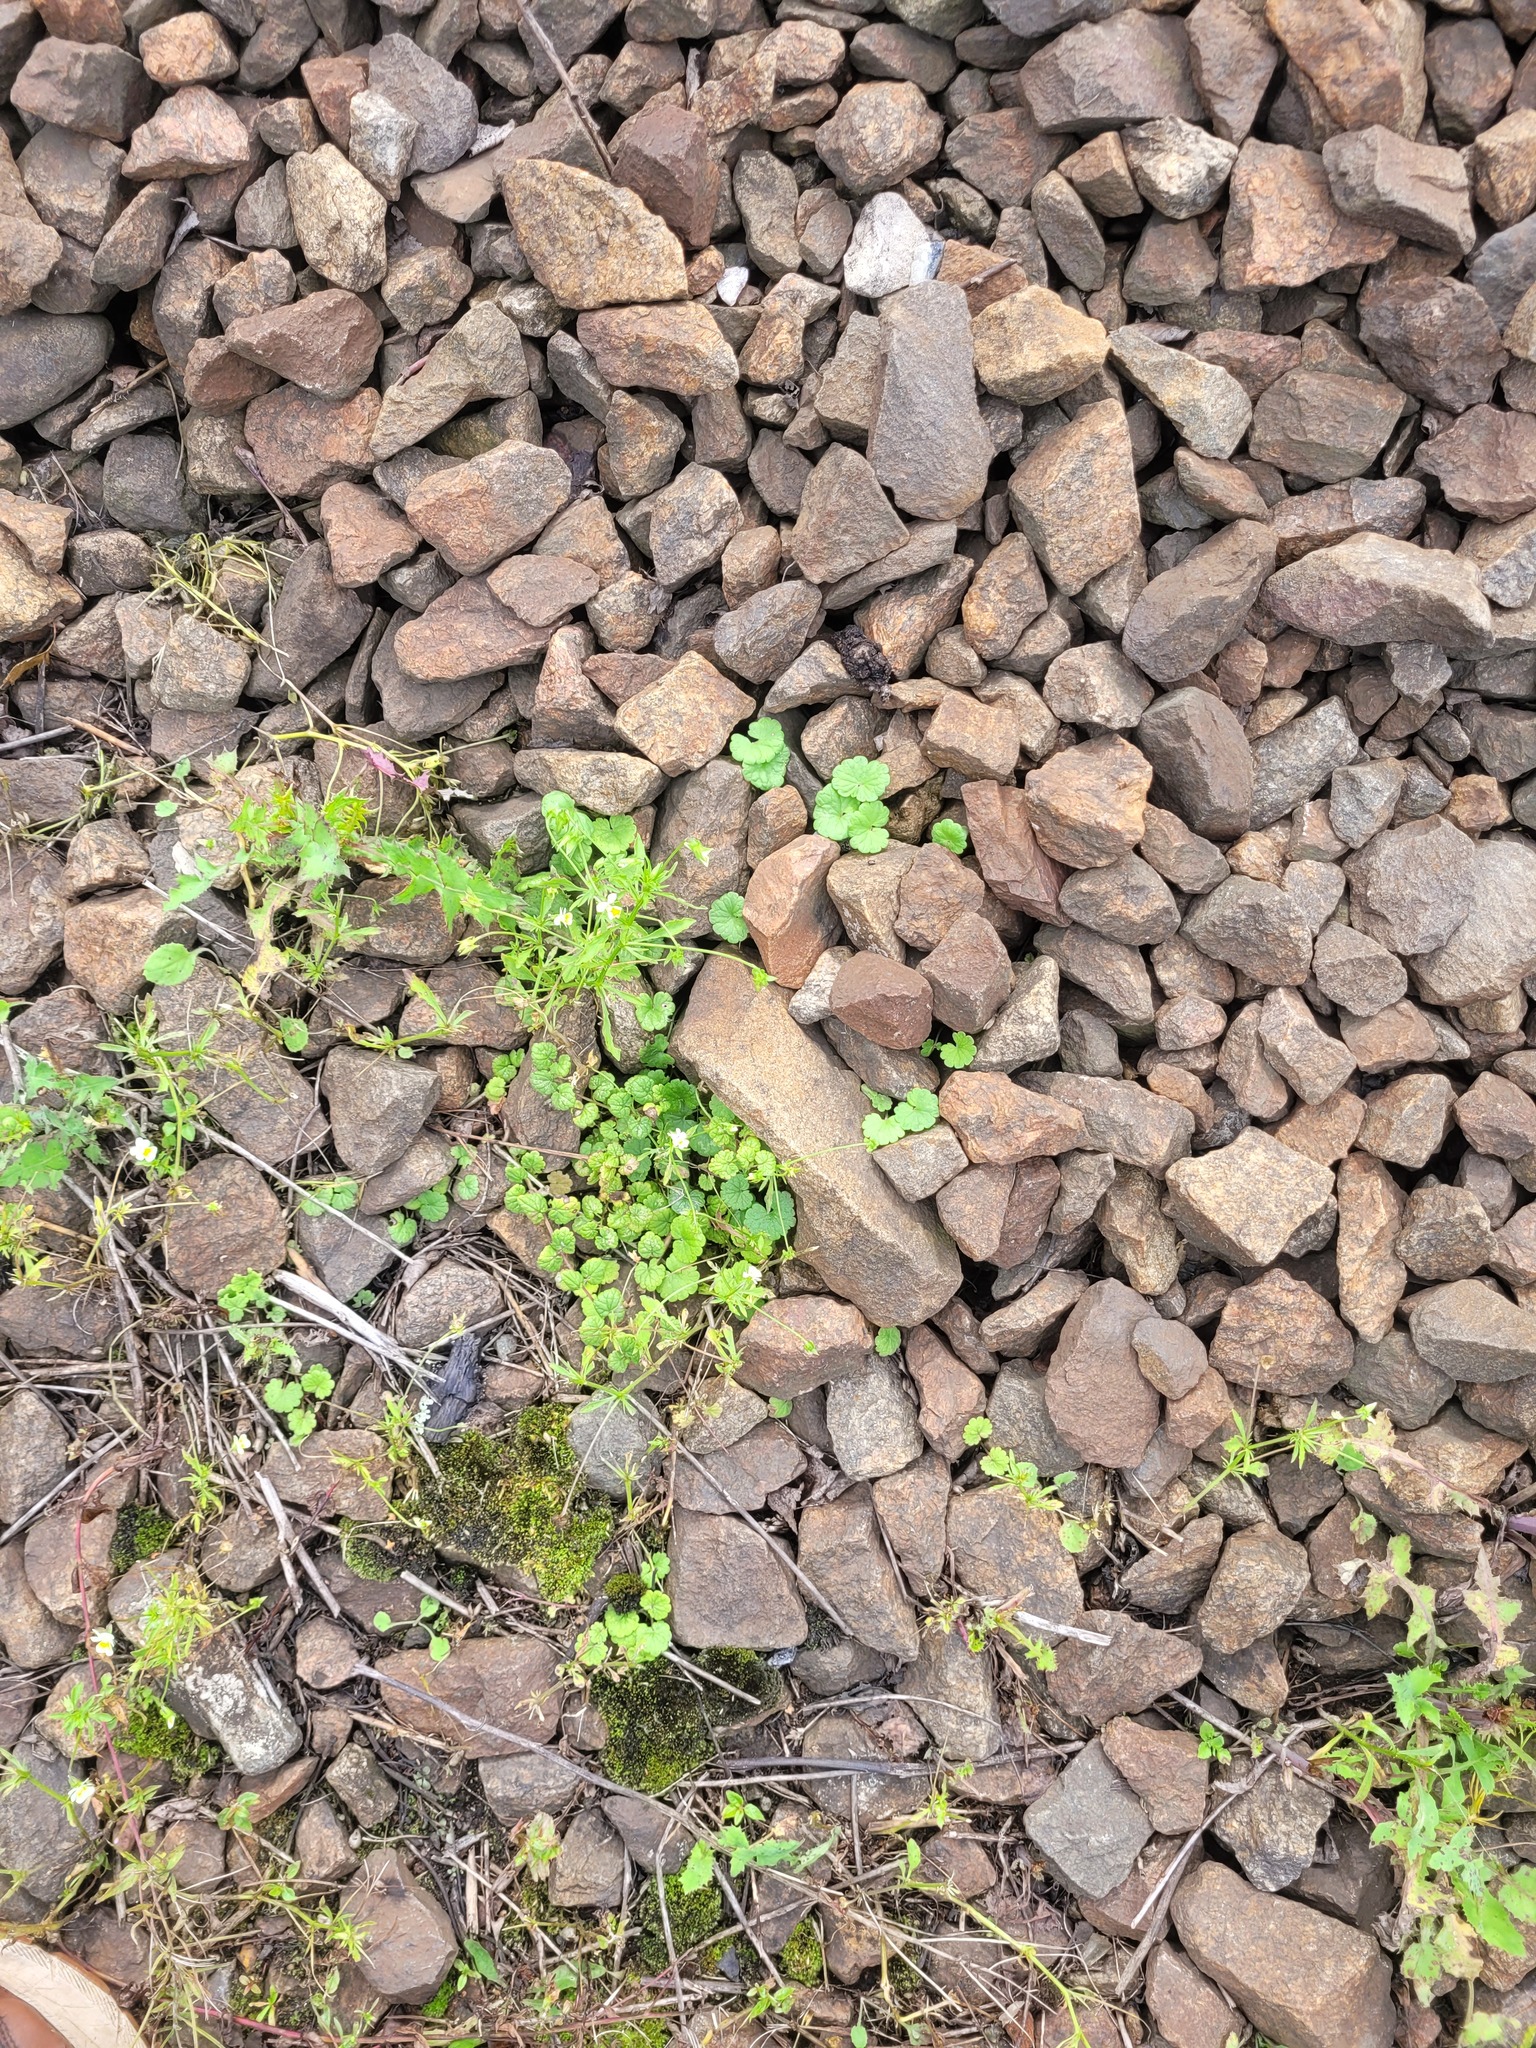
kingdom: Plantae
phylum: Tracheophyta
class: Magnoliopsida
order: Lamiales
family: Lamiaceae
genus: Glechoma
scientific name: Glechoma hederacea
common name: Ground ivy
